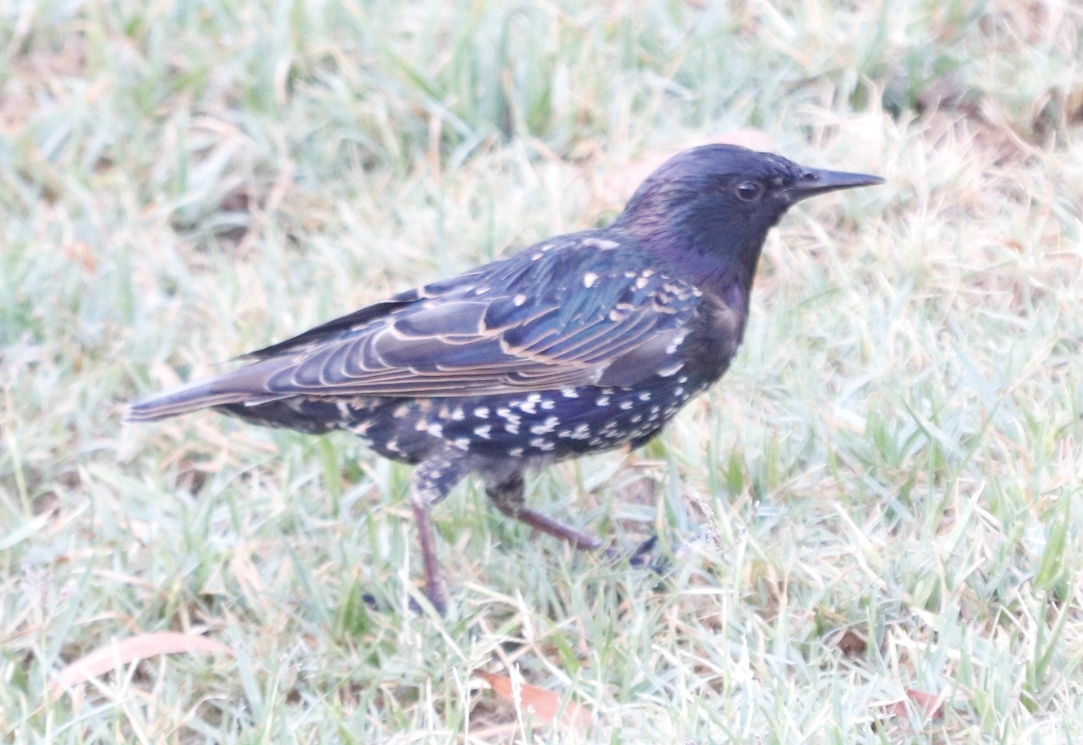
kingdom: Animalia
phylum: Chordata
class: Aves
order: Passeriformes
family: Sturnidae
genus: Sturnus
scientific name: Sturnus vulgaris
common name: Common starling
